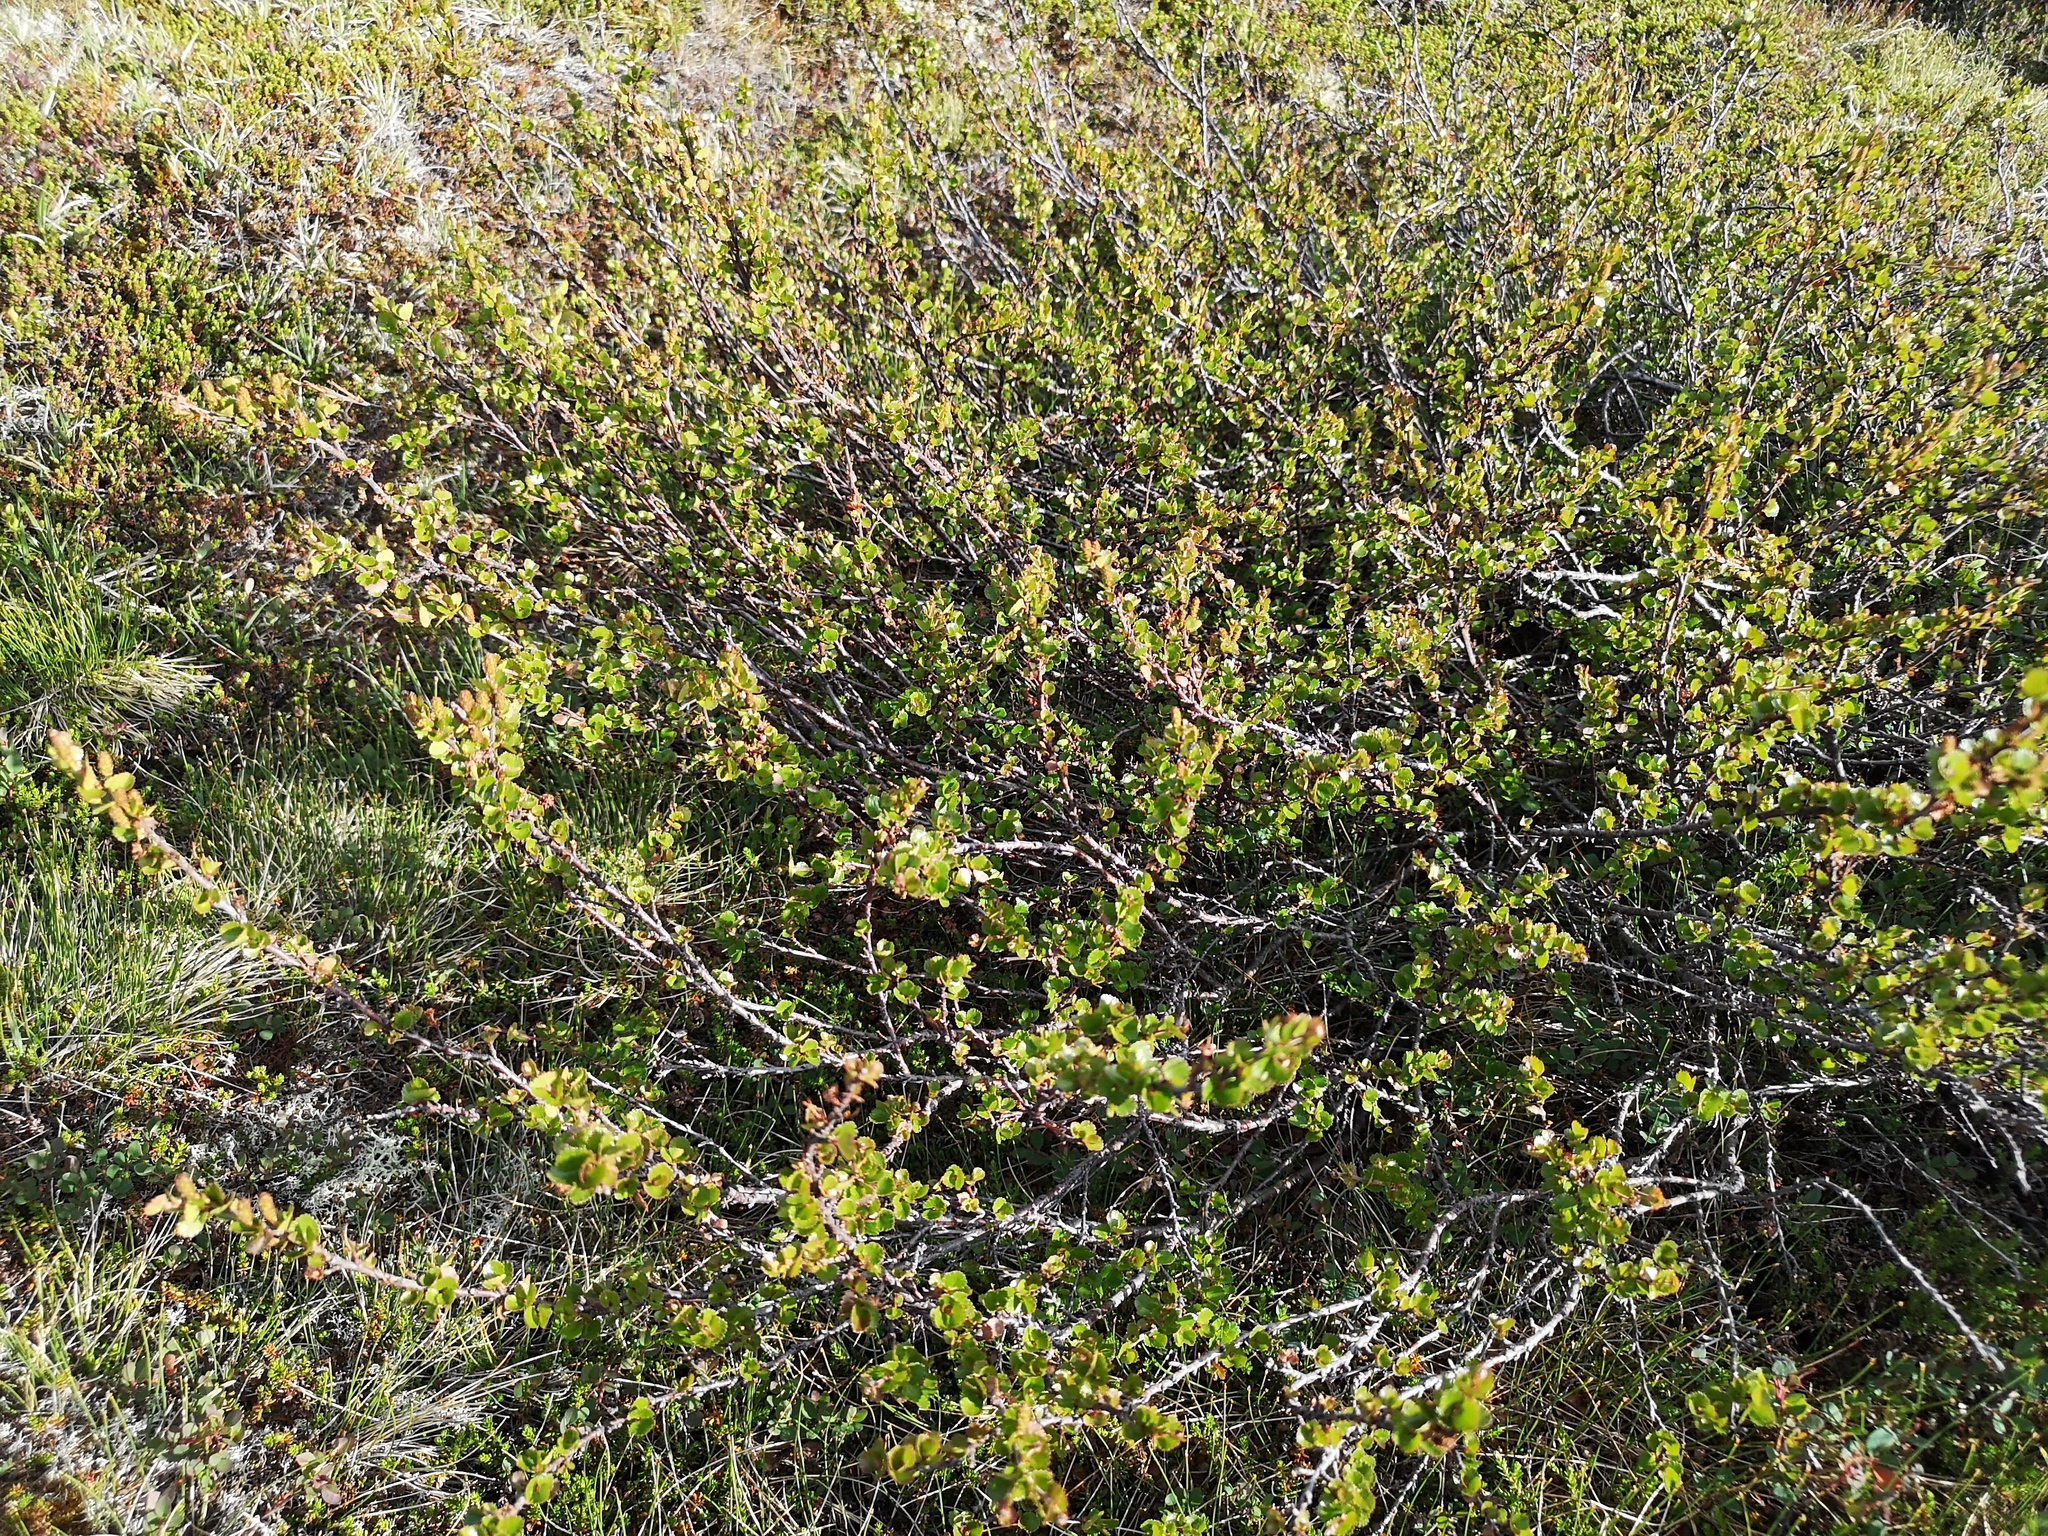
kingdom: Plantae
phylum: Tracheophyta
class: Magnoliopsida
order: Fagales
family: Betulaceae
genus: Betula
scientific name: Betula nana
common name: Arctic dwarf birch
